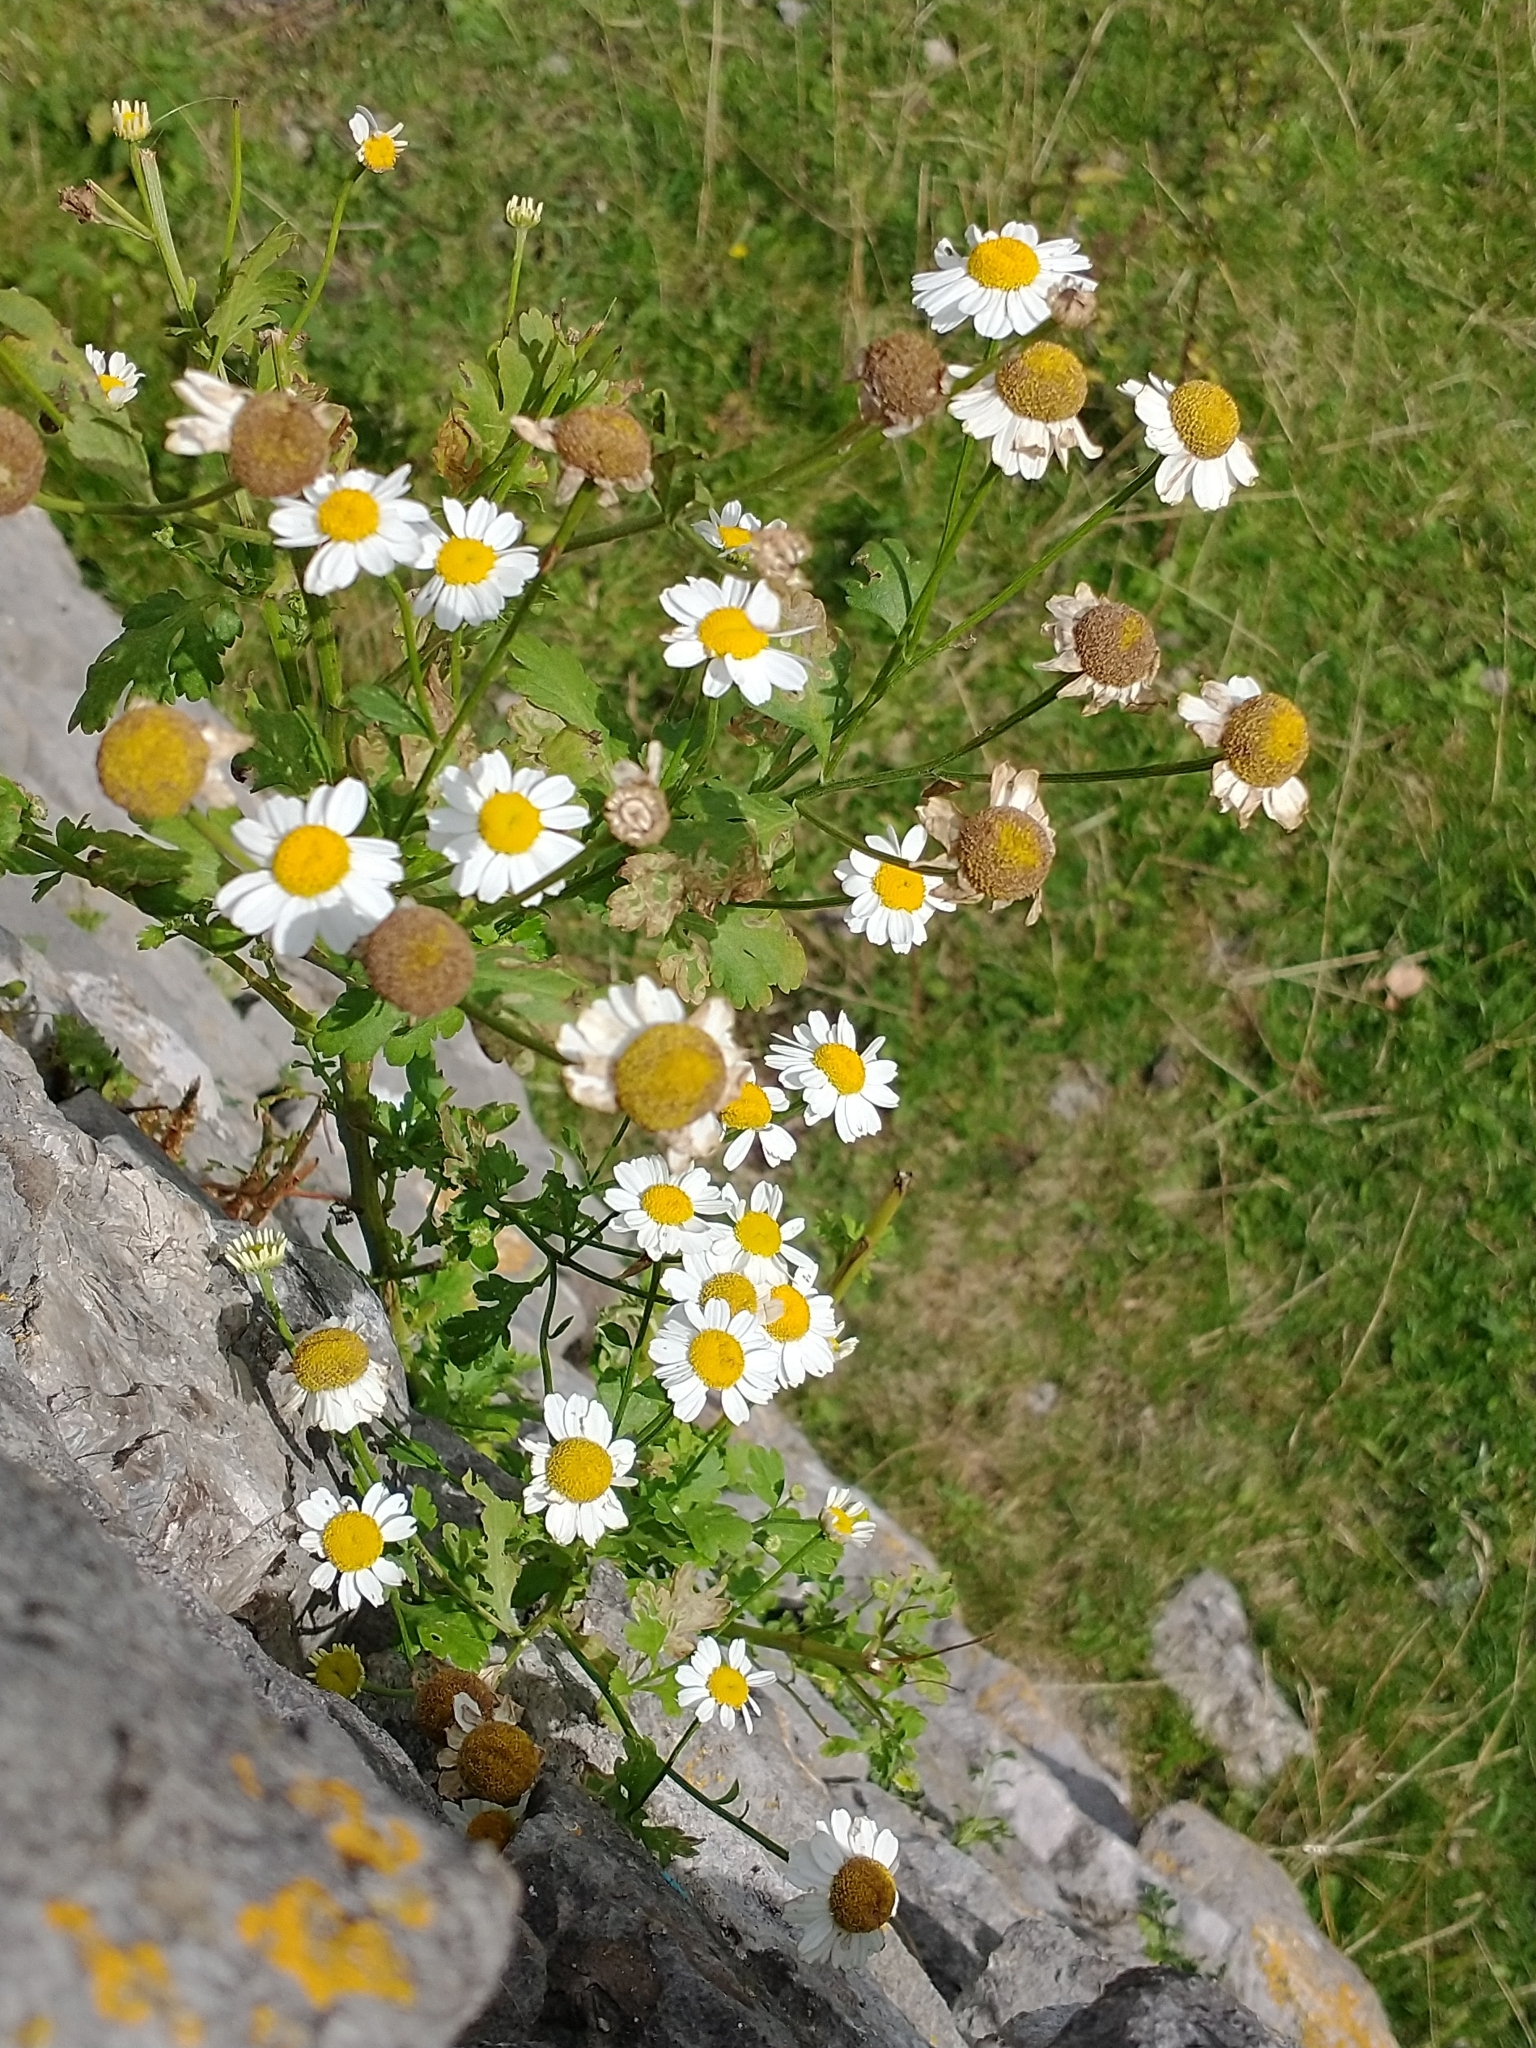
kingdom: Plantae
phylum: Tracheophyta
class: Magnoliopsida
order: Asterales
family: Asteraceae
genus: Tanacetum
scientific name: Tanacetum parthenium
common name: Feverfew
